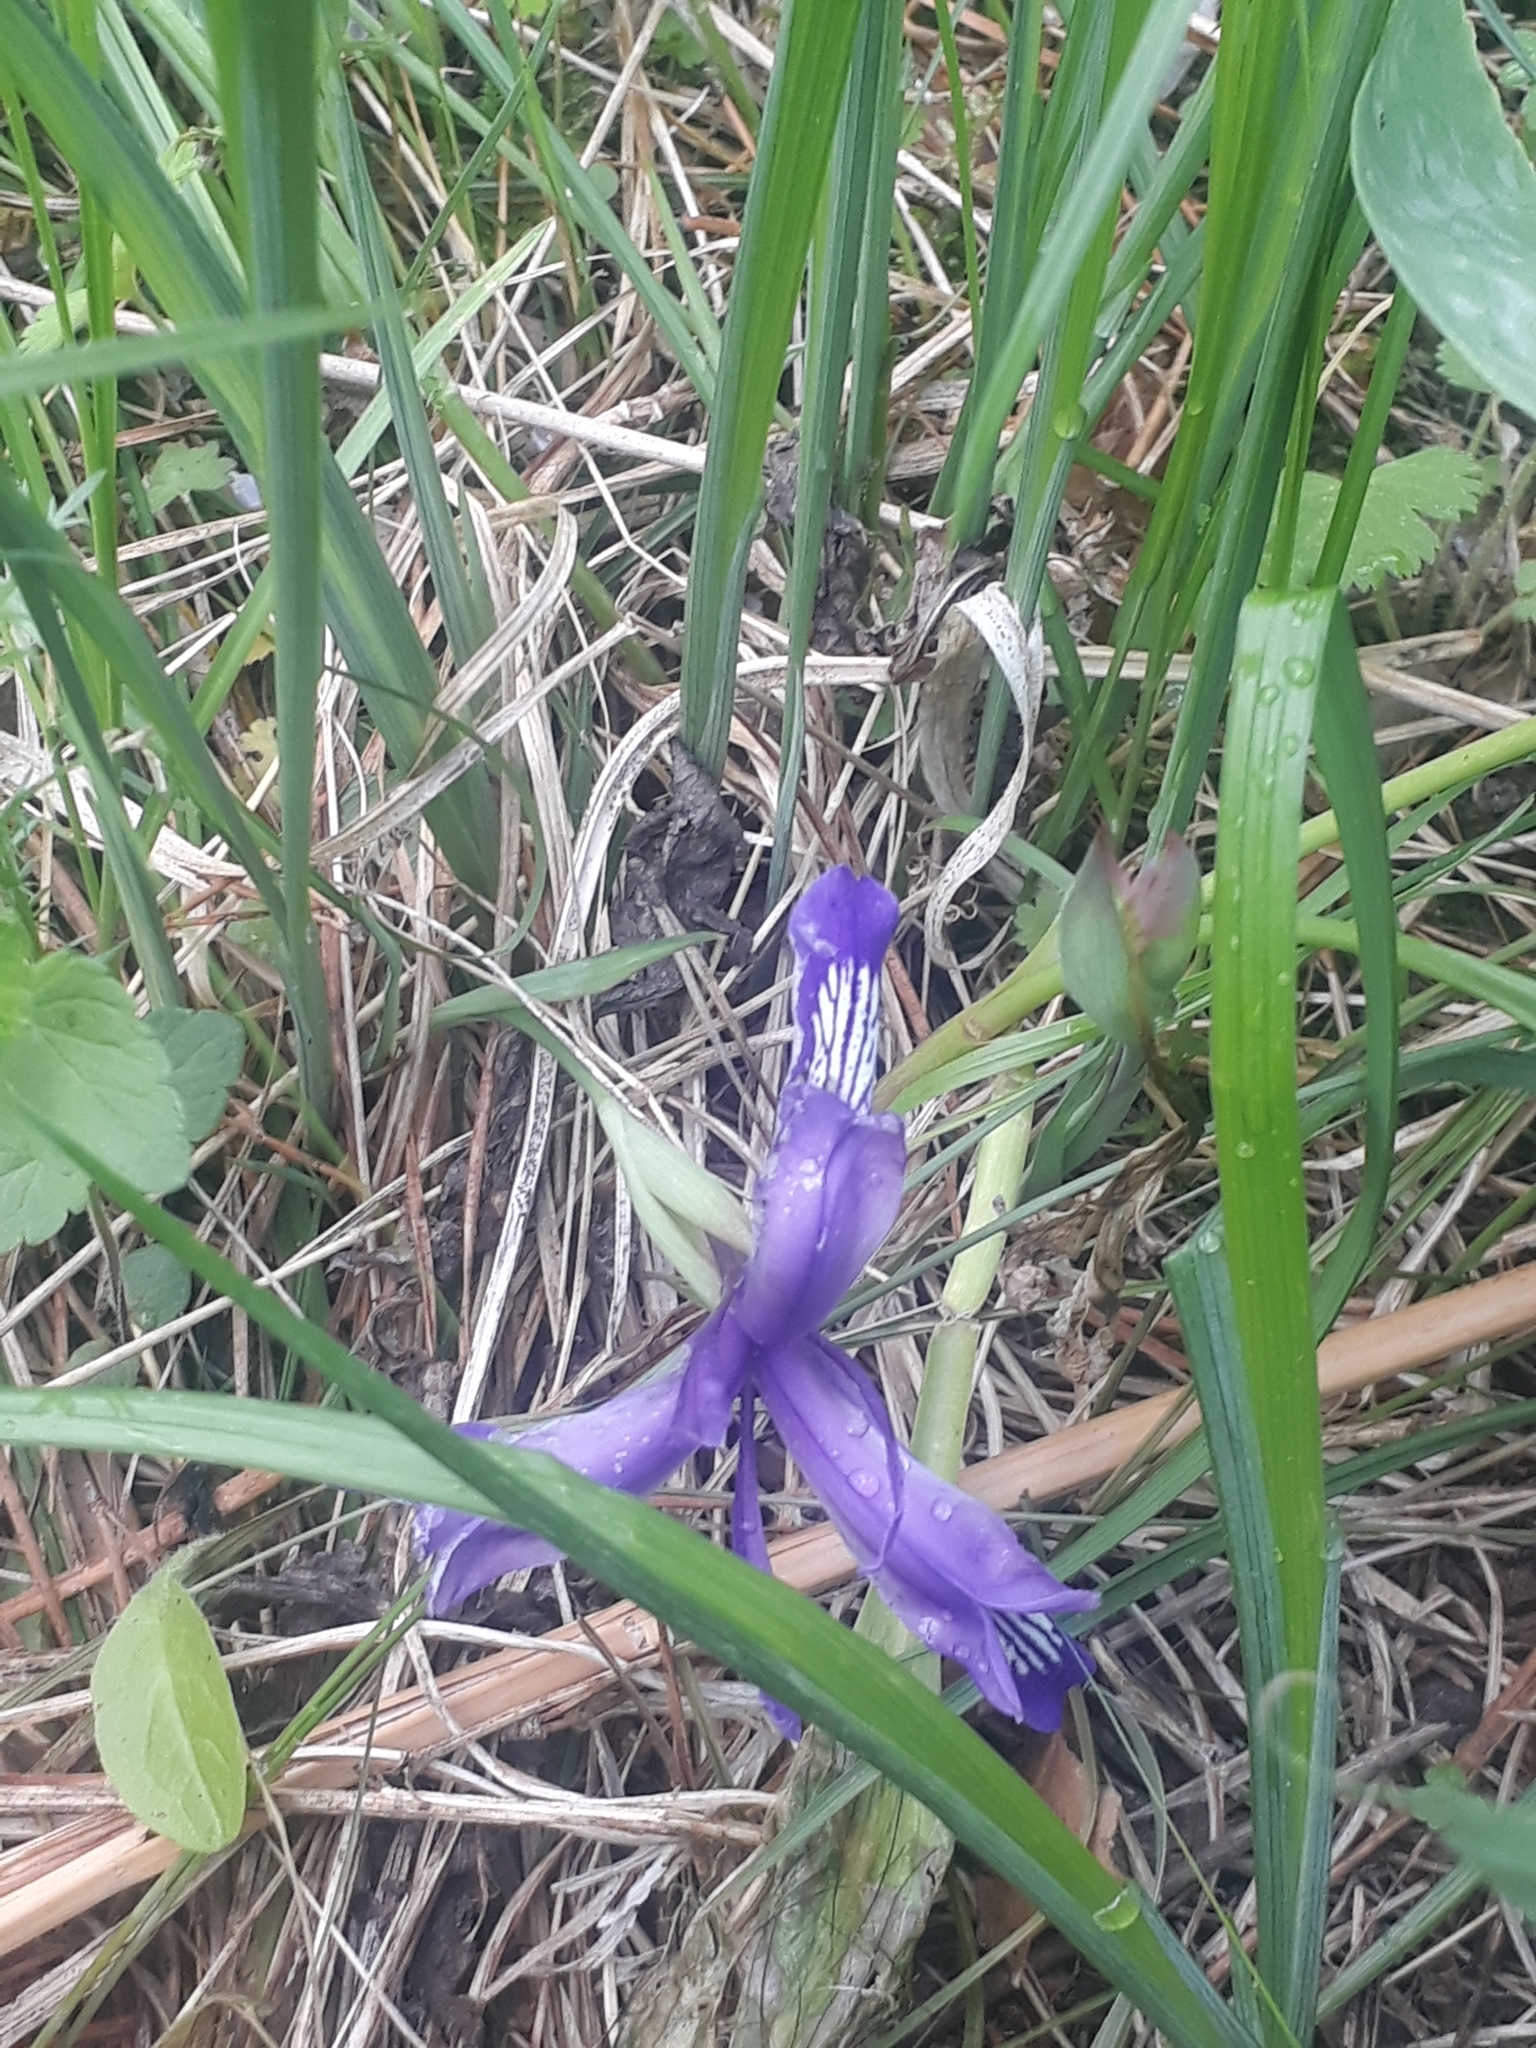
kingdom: Plantae
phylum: Tracheophyta
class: Liliopsida
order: Asparagales
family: Iridaceae
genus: Iris
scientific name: Iris ruthenica
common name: Purple-bract iris
